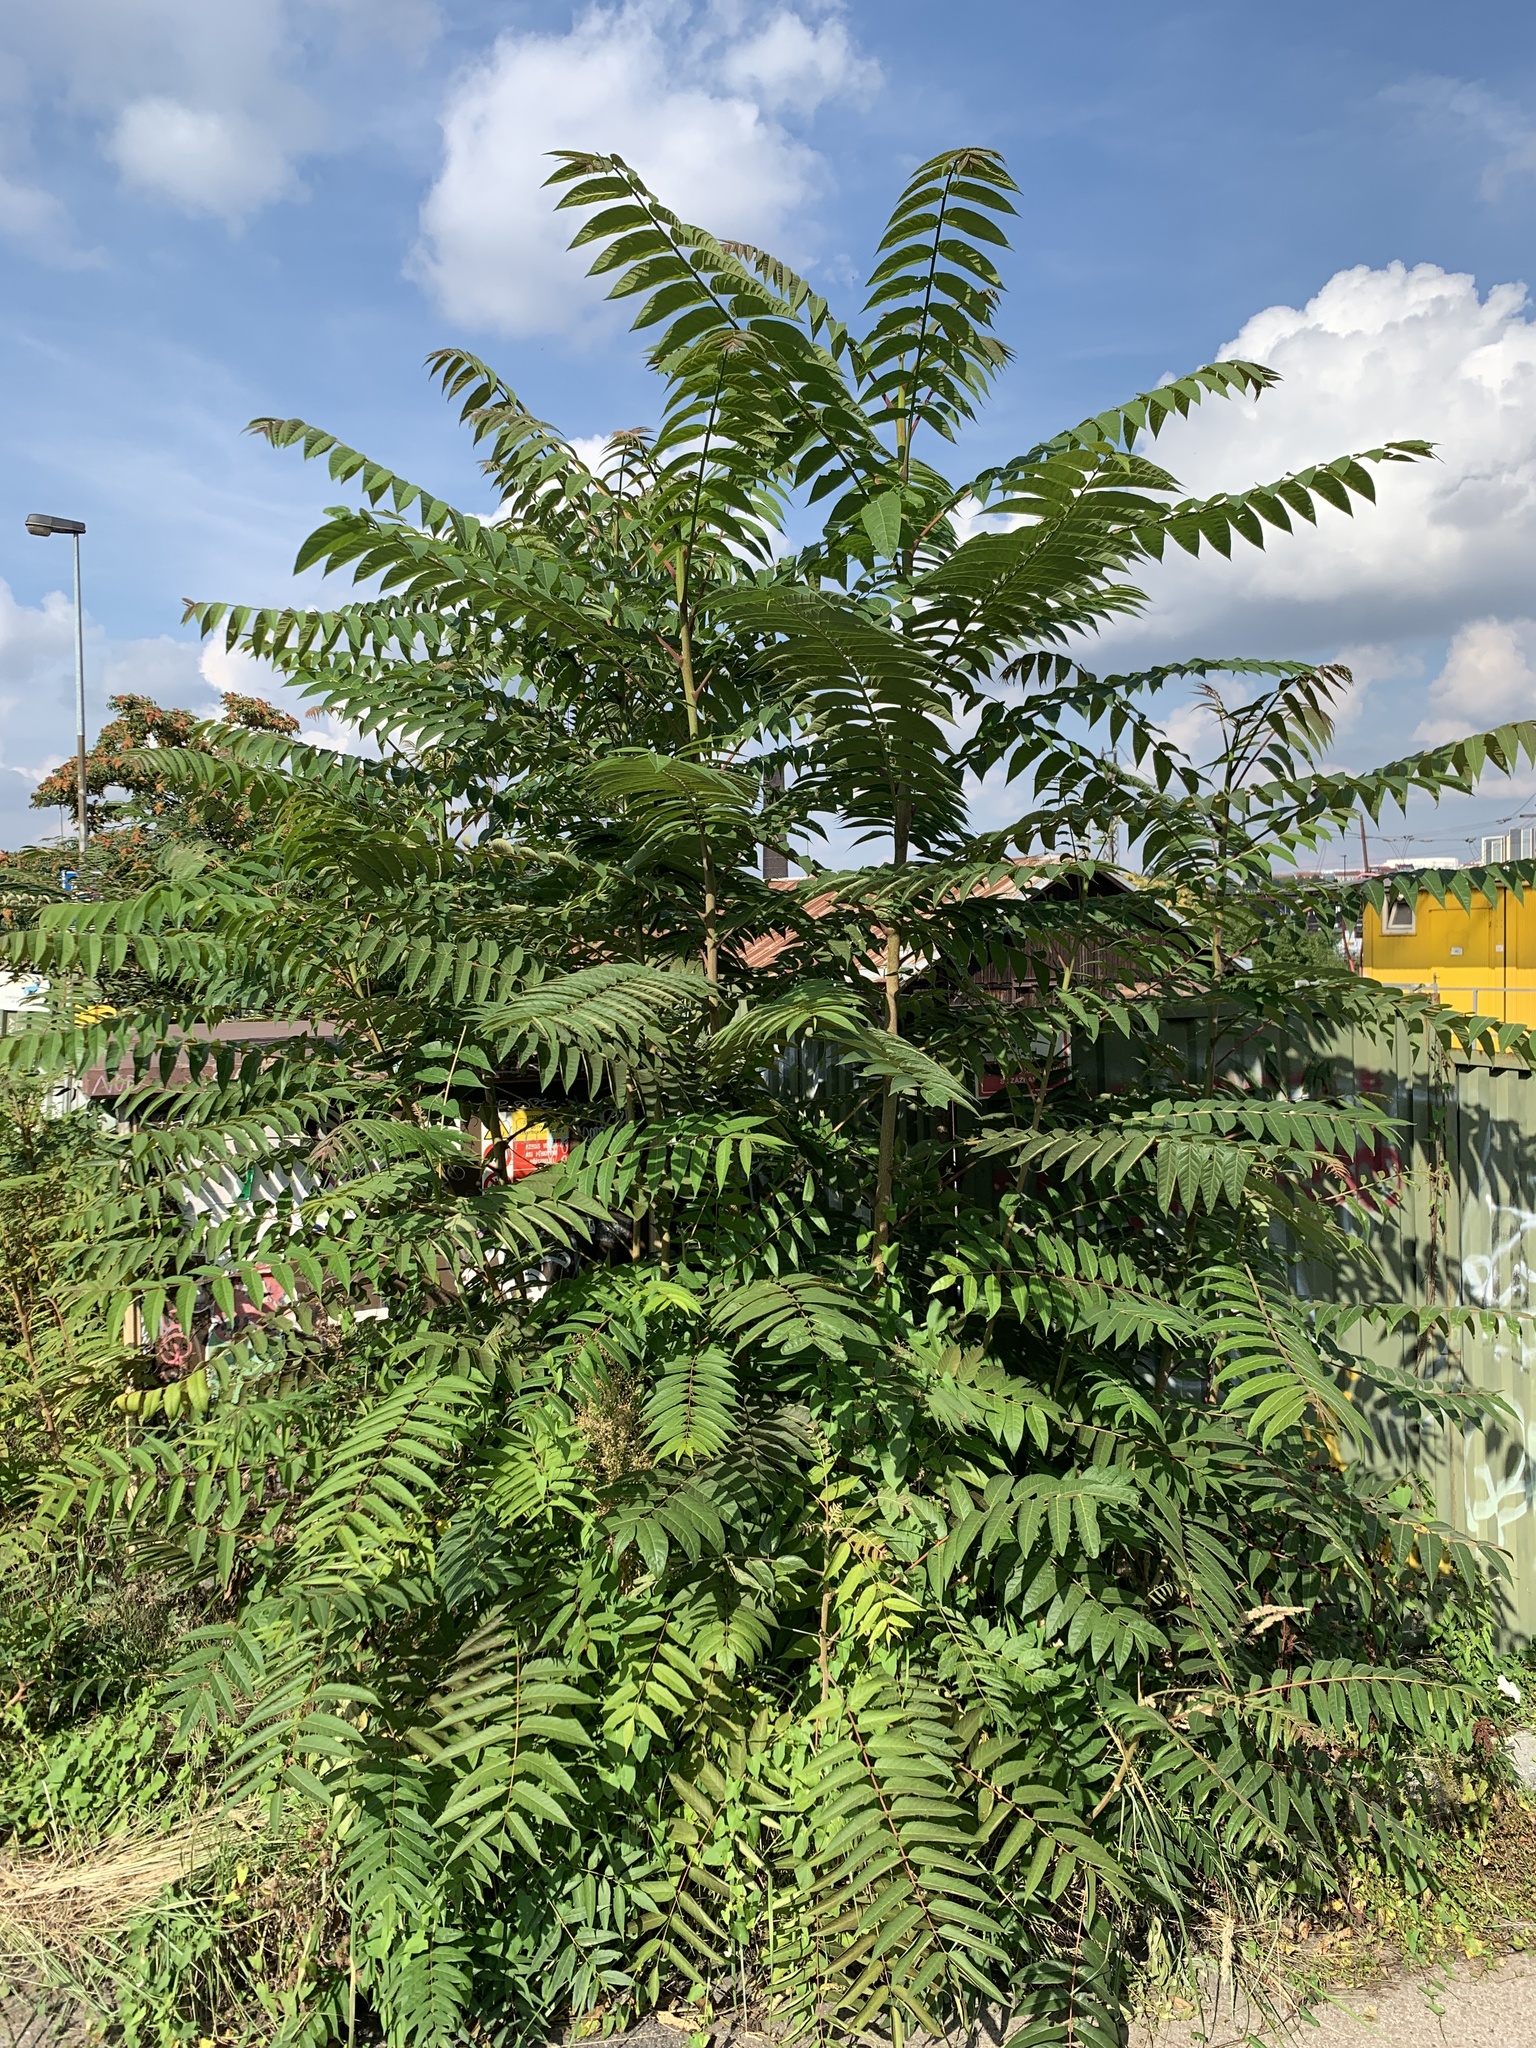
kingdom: Plantae
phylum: Tracheophyta
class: Magnoliopsida
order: Sapindales
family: Simaroubaceae
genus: Ailanthus
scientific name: Ailanthus altissima
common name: Tree-of-heaven
